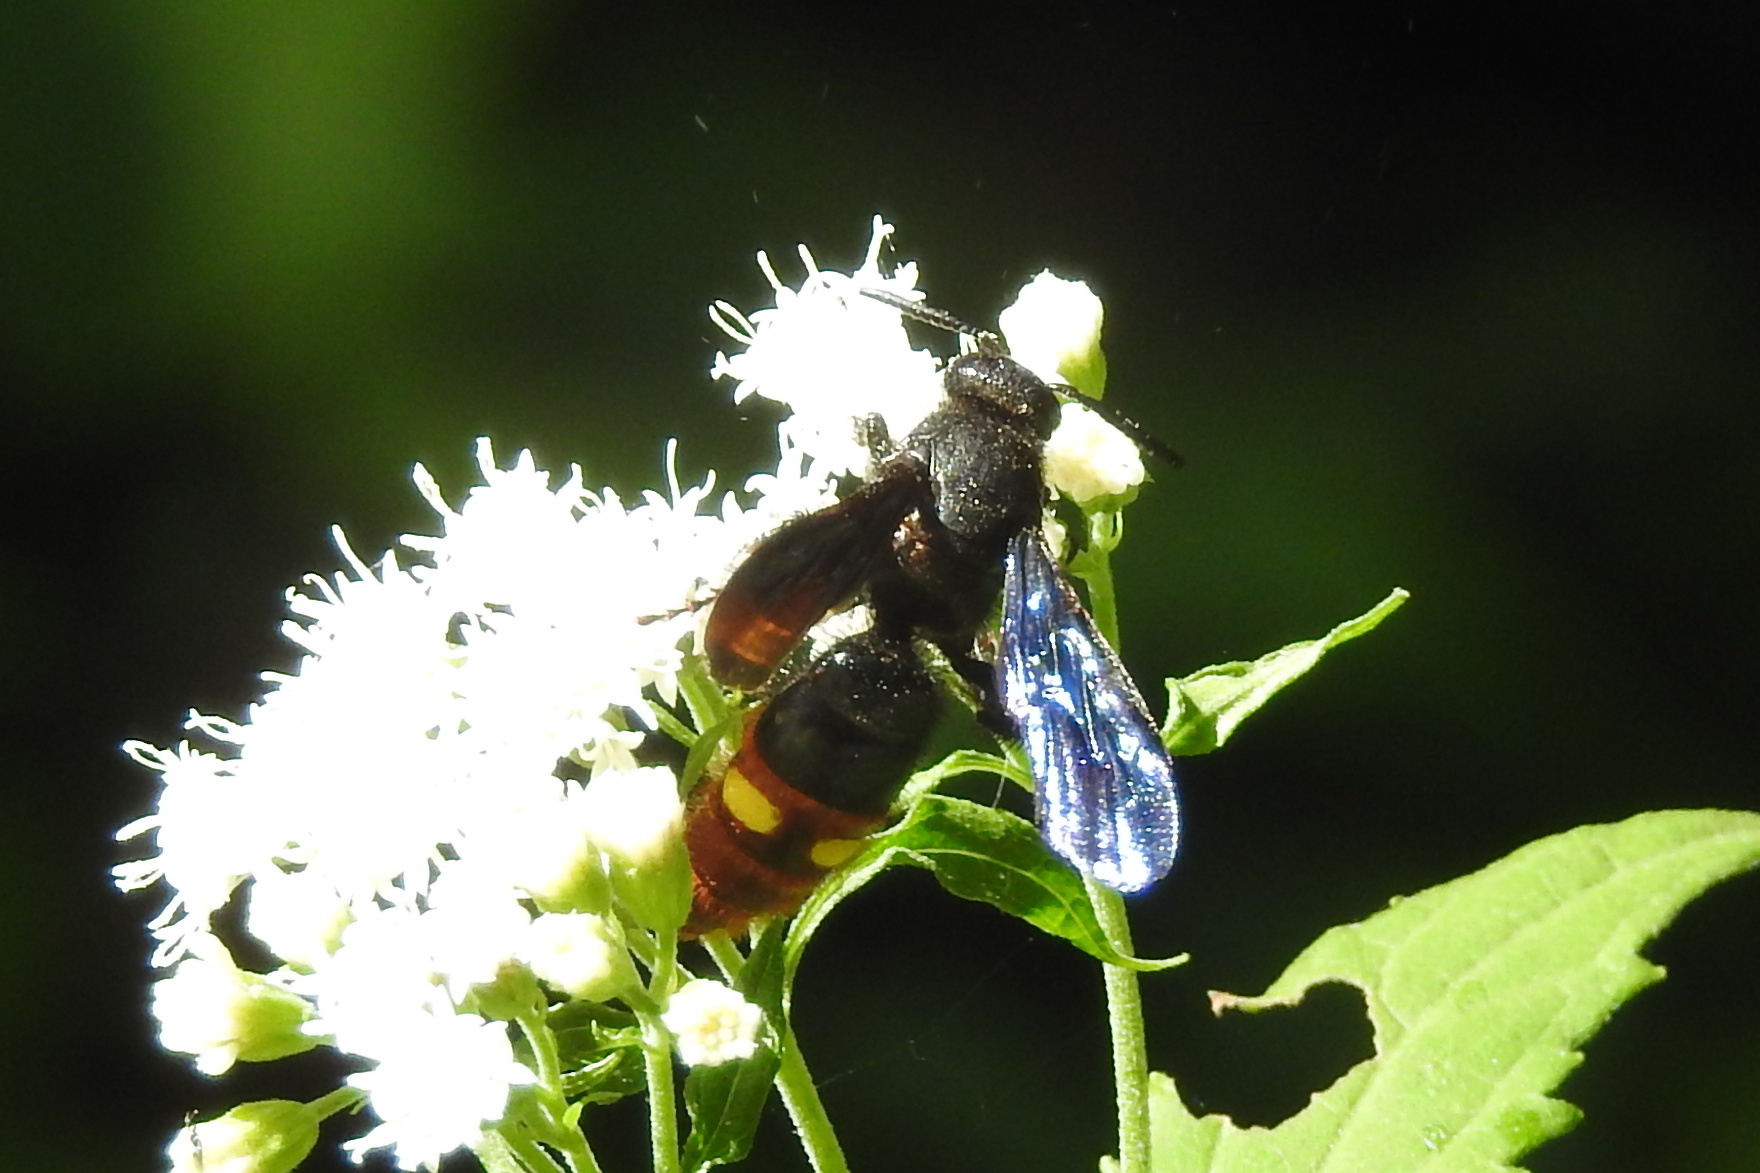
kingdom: Animalia
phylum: Arthropoda
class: Insecta
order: Hymenoptera
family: Scoliidae
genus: Scolia
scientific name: Scolia dubia
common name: Blue-winged scoliid wasp
